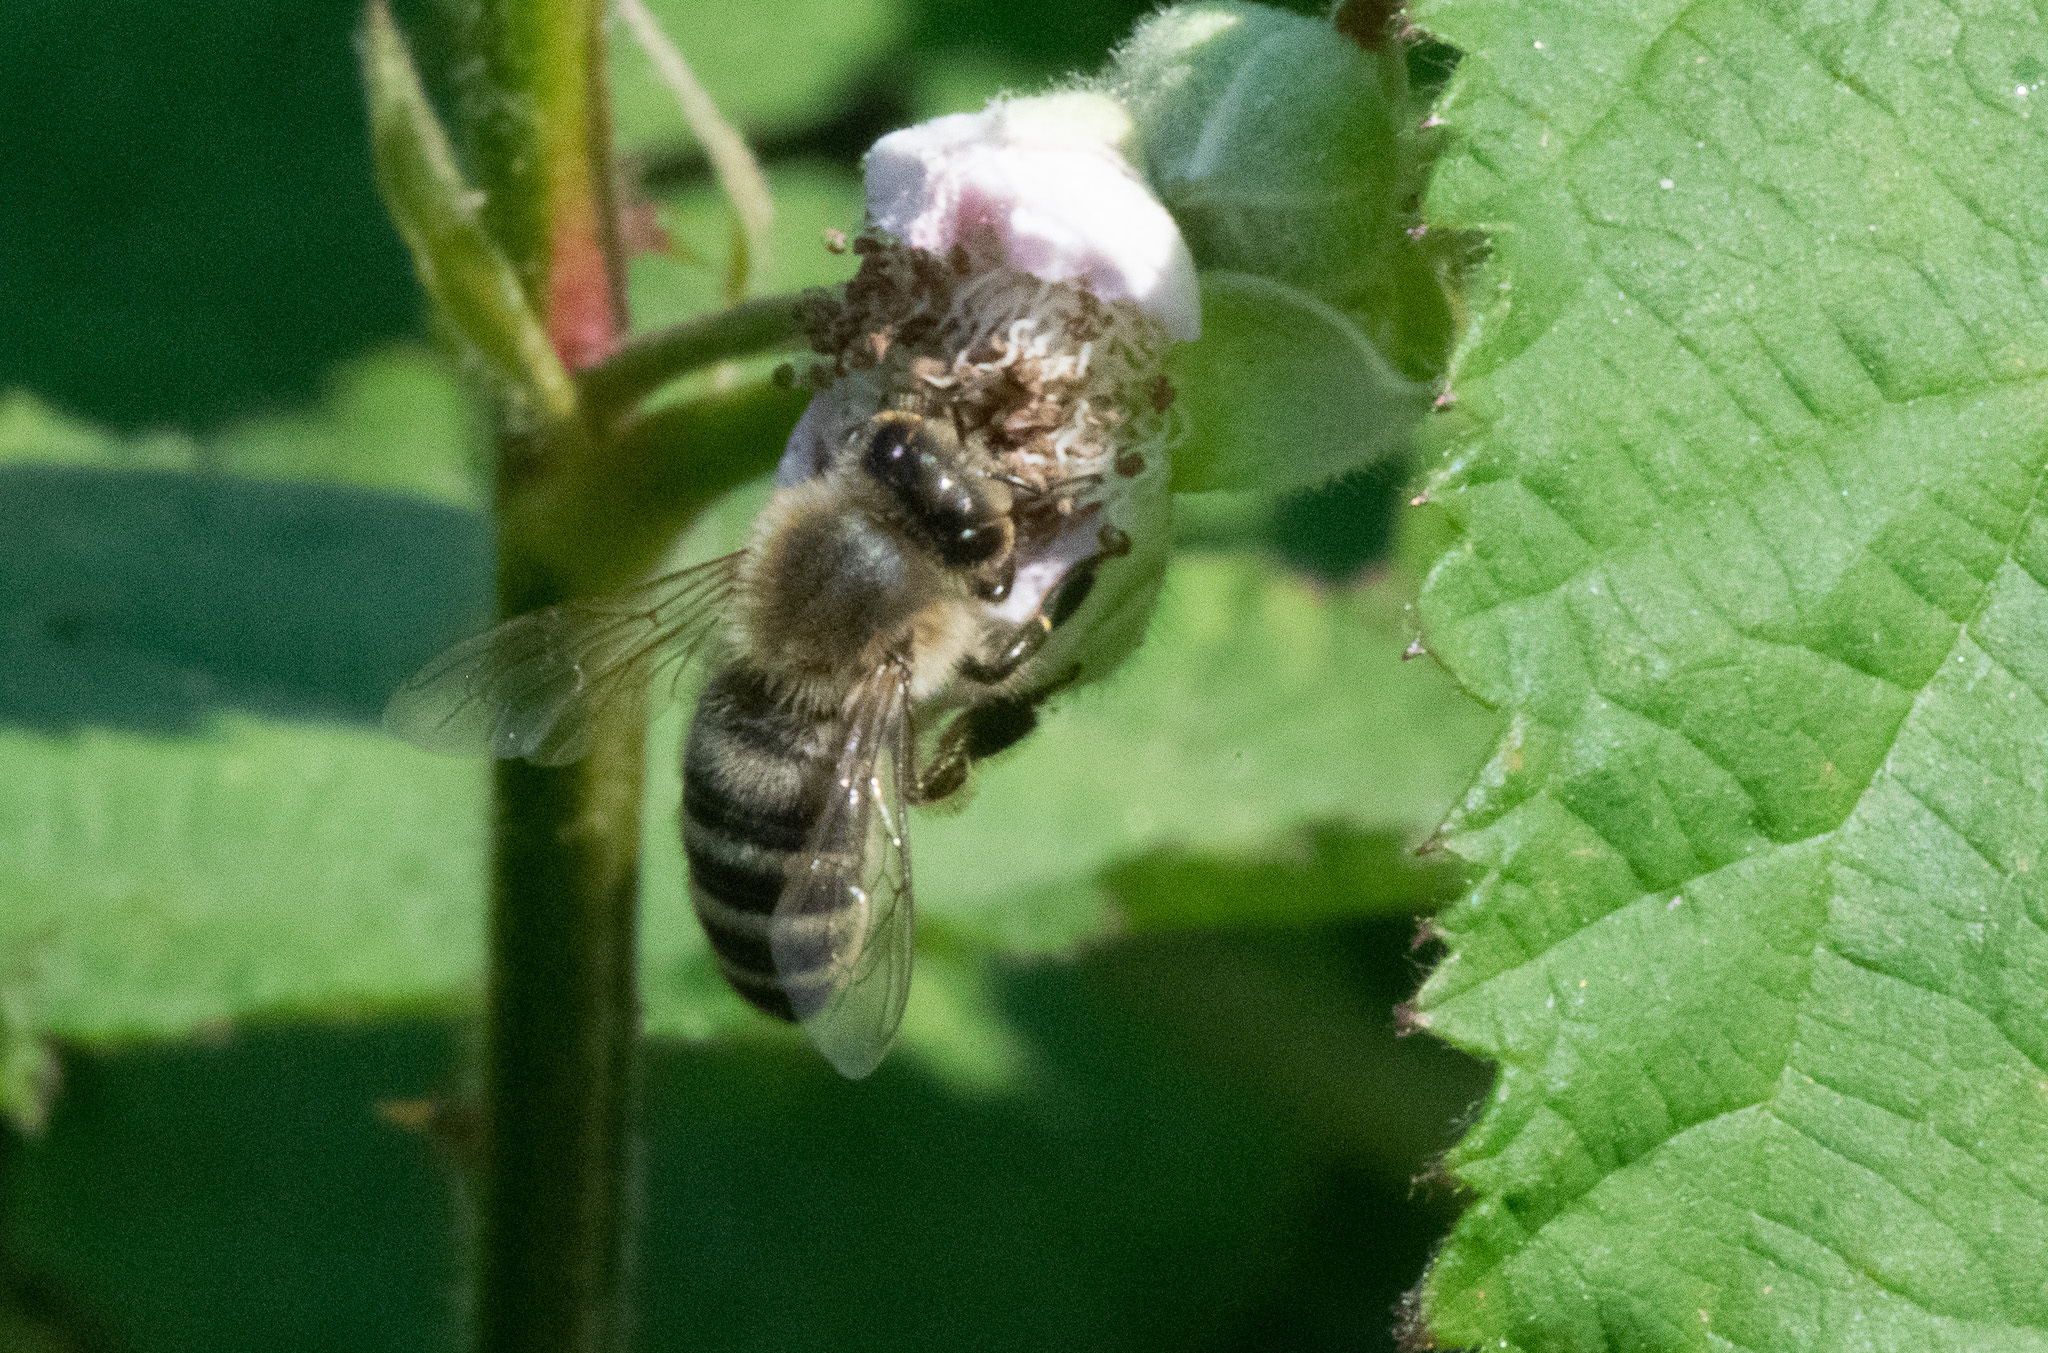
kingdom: Animalia
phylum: Arthropoda
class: Insecta
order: Hymenoptera
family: Apidae
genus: Apis
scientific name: Apis mellifera
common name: Honey bee
